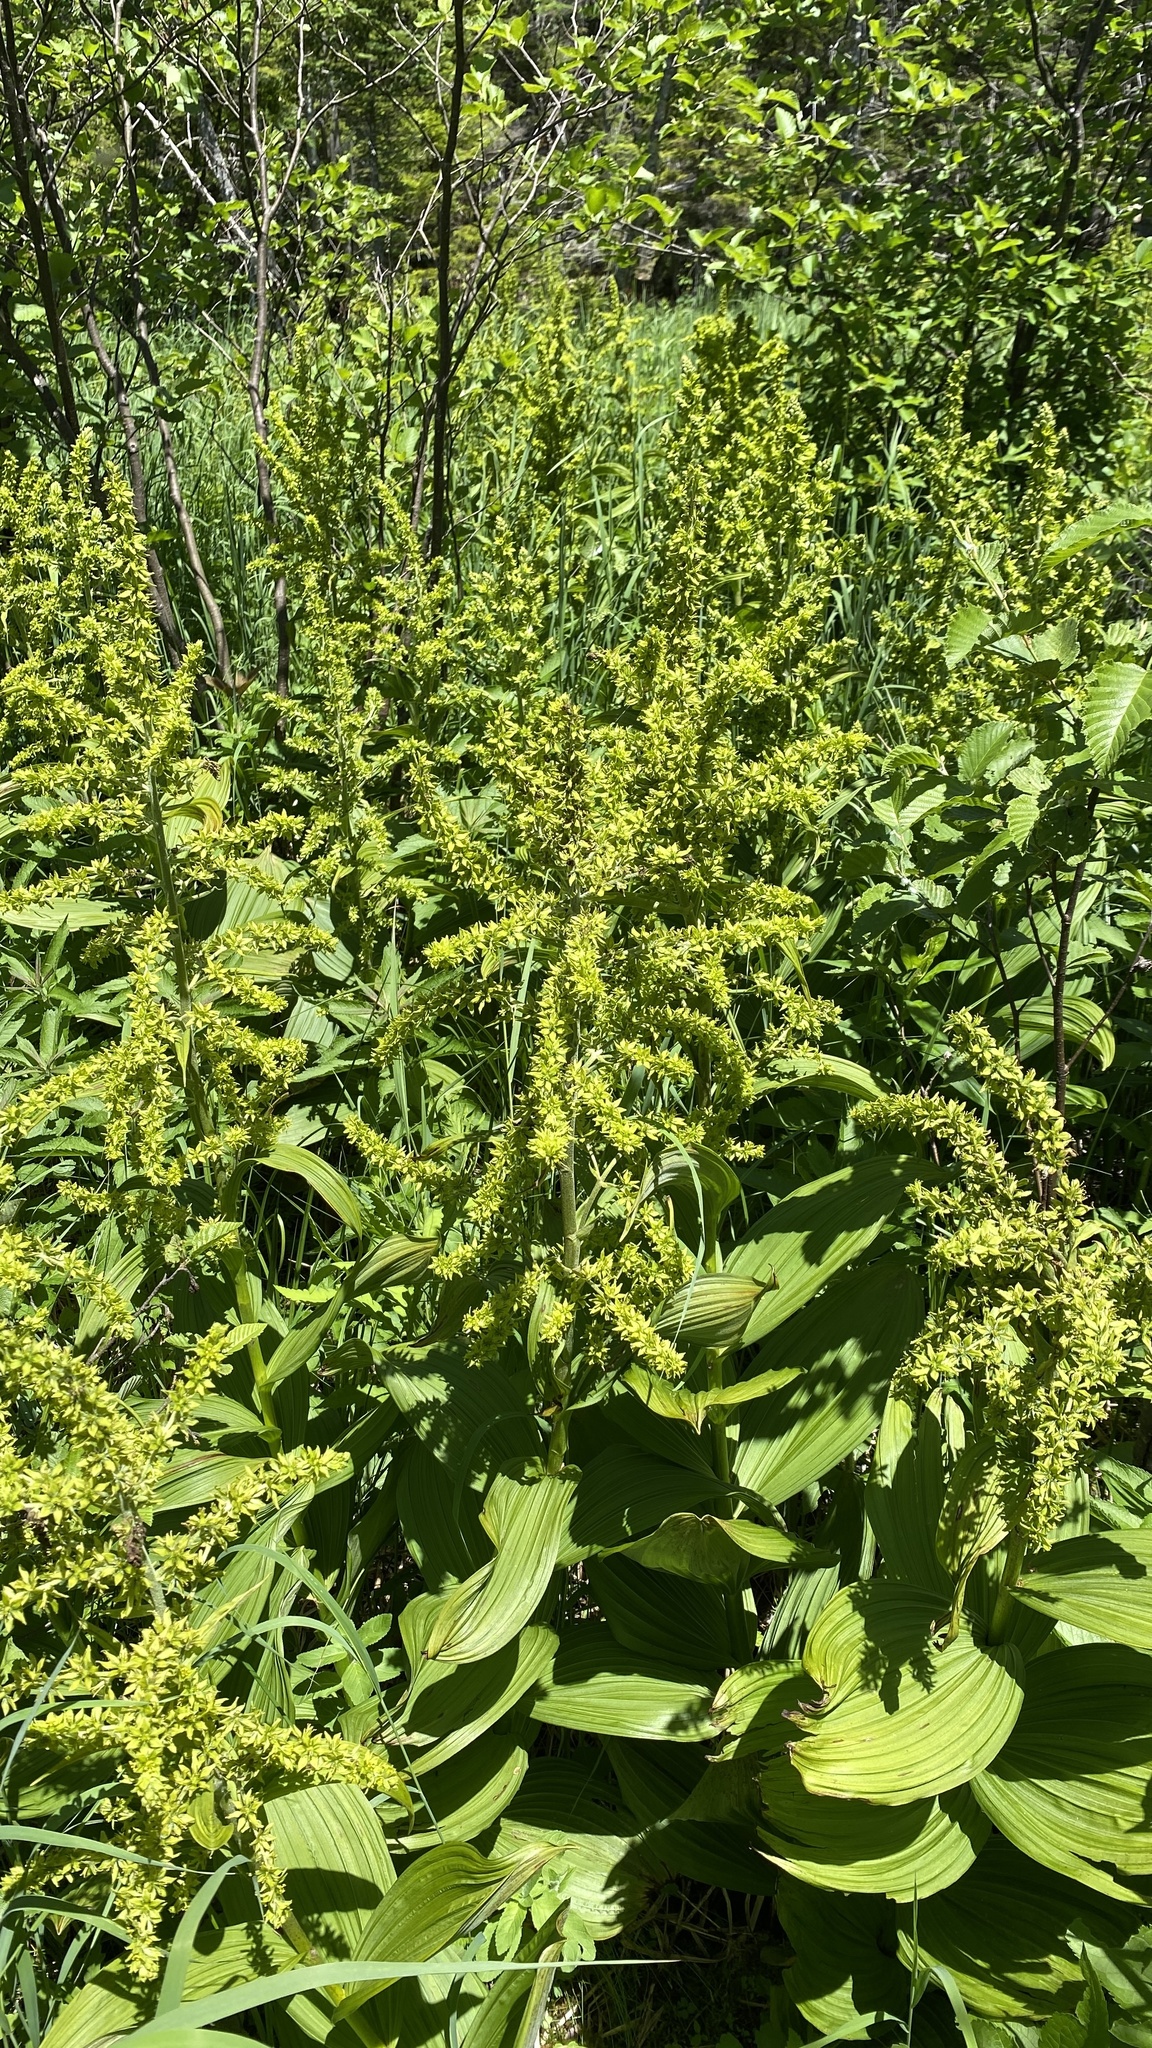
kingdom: Plantae
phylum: Tracheophyta
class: Liliopsida
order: Liliales
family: Melanthiaceae
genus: Veratrum
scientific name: Veratrum viride
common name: American false hellebore
